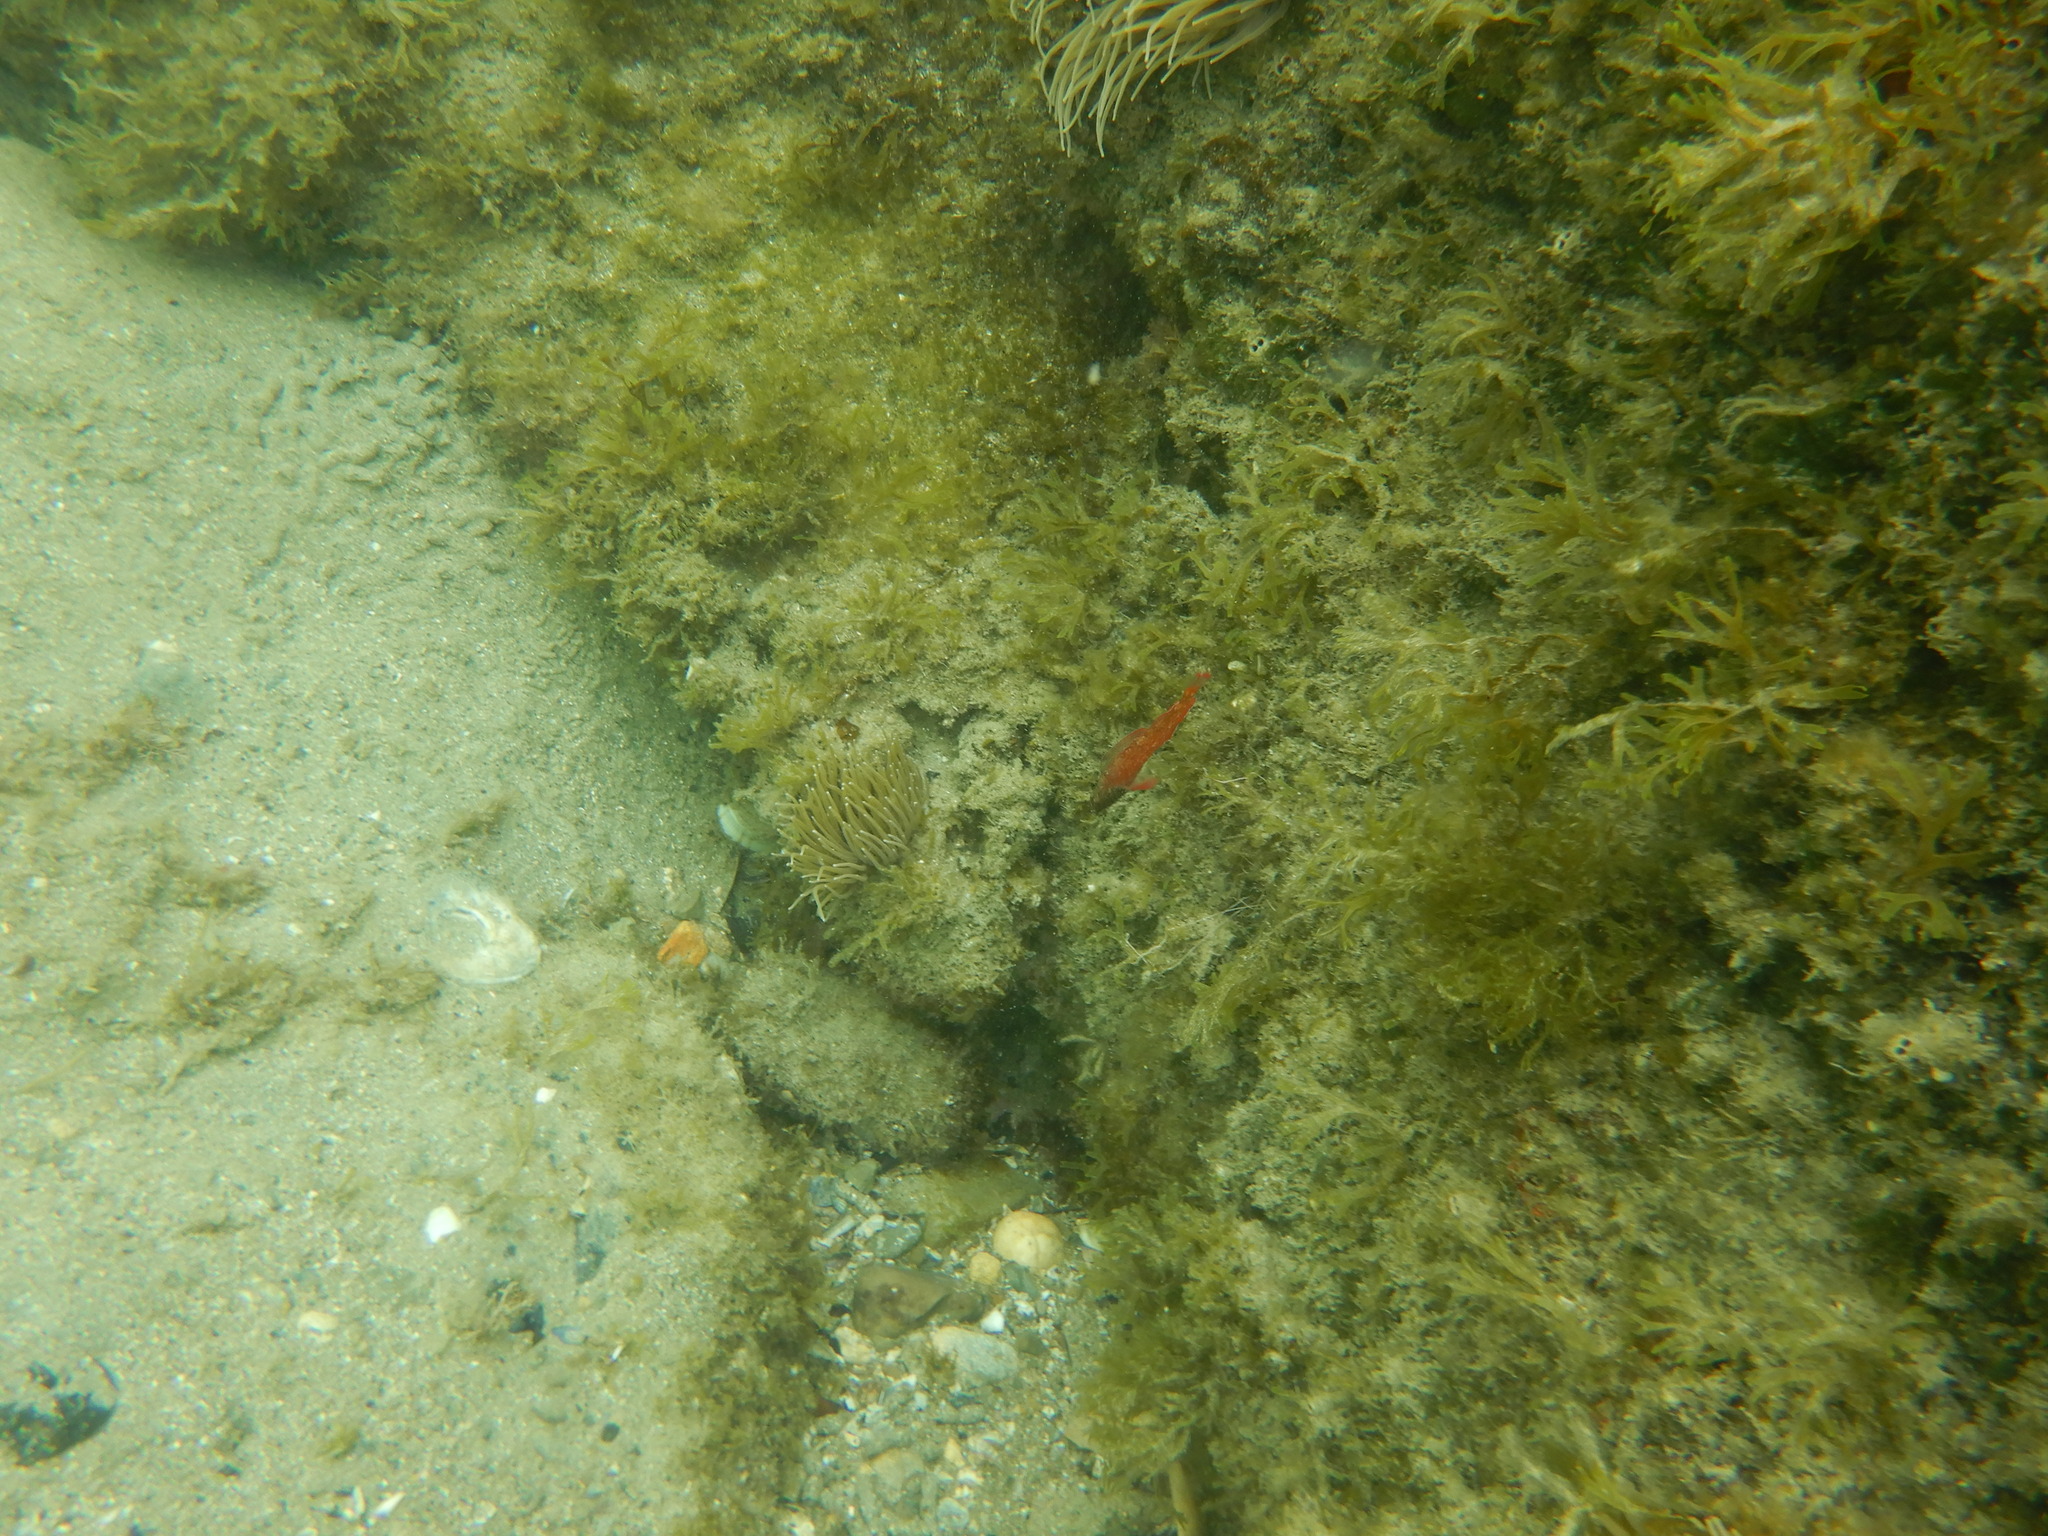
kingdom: Animalia
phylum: Chordata
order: Perciformes
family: Tripterygiidae
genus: Tripterygion
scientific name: Tripterygion tripteronotum
